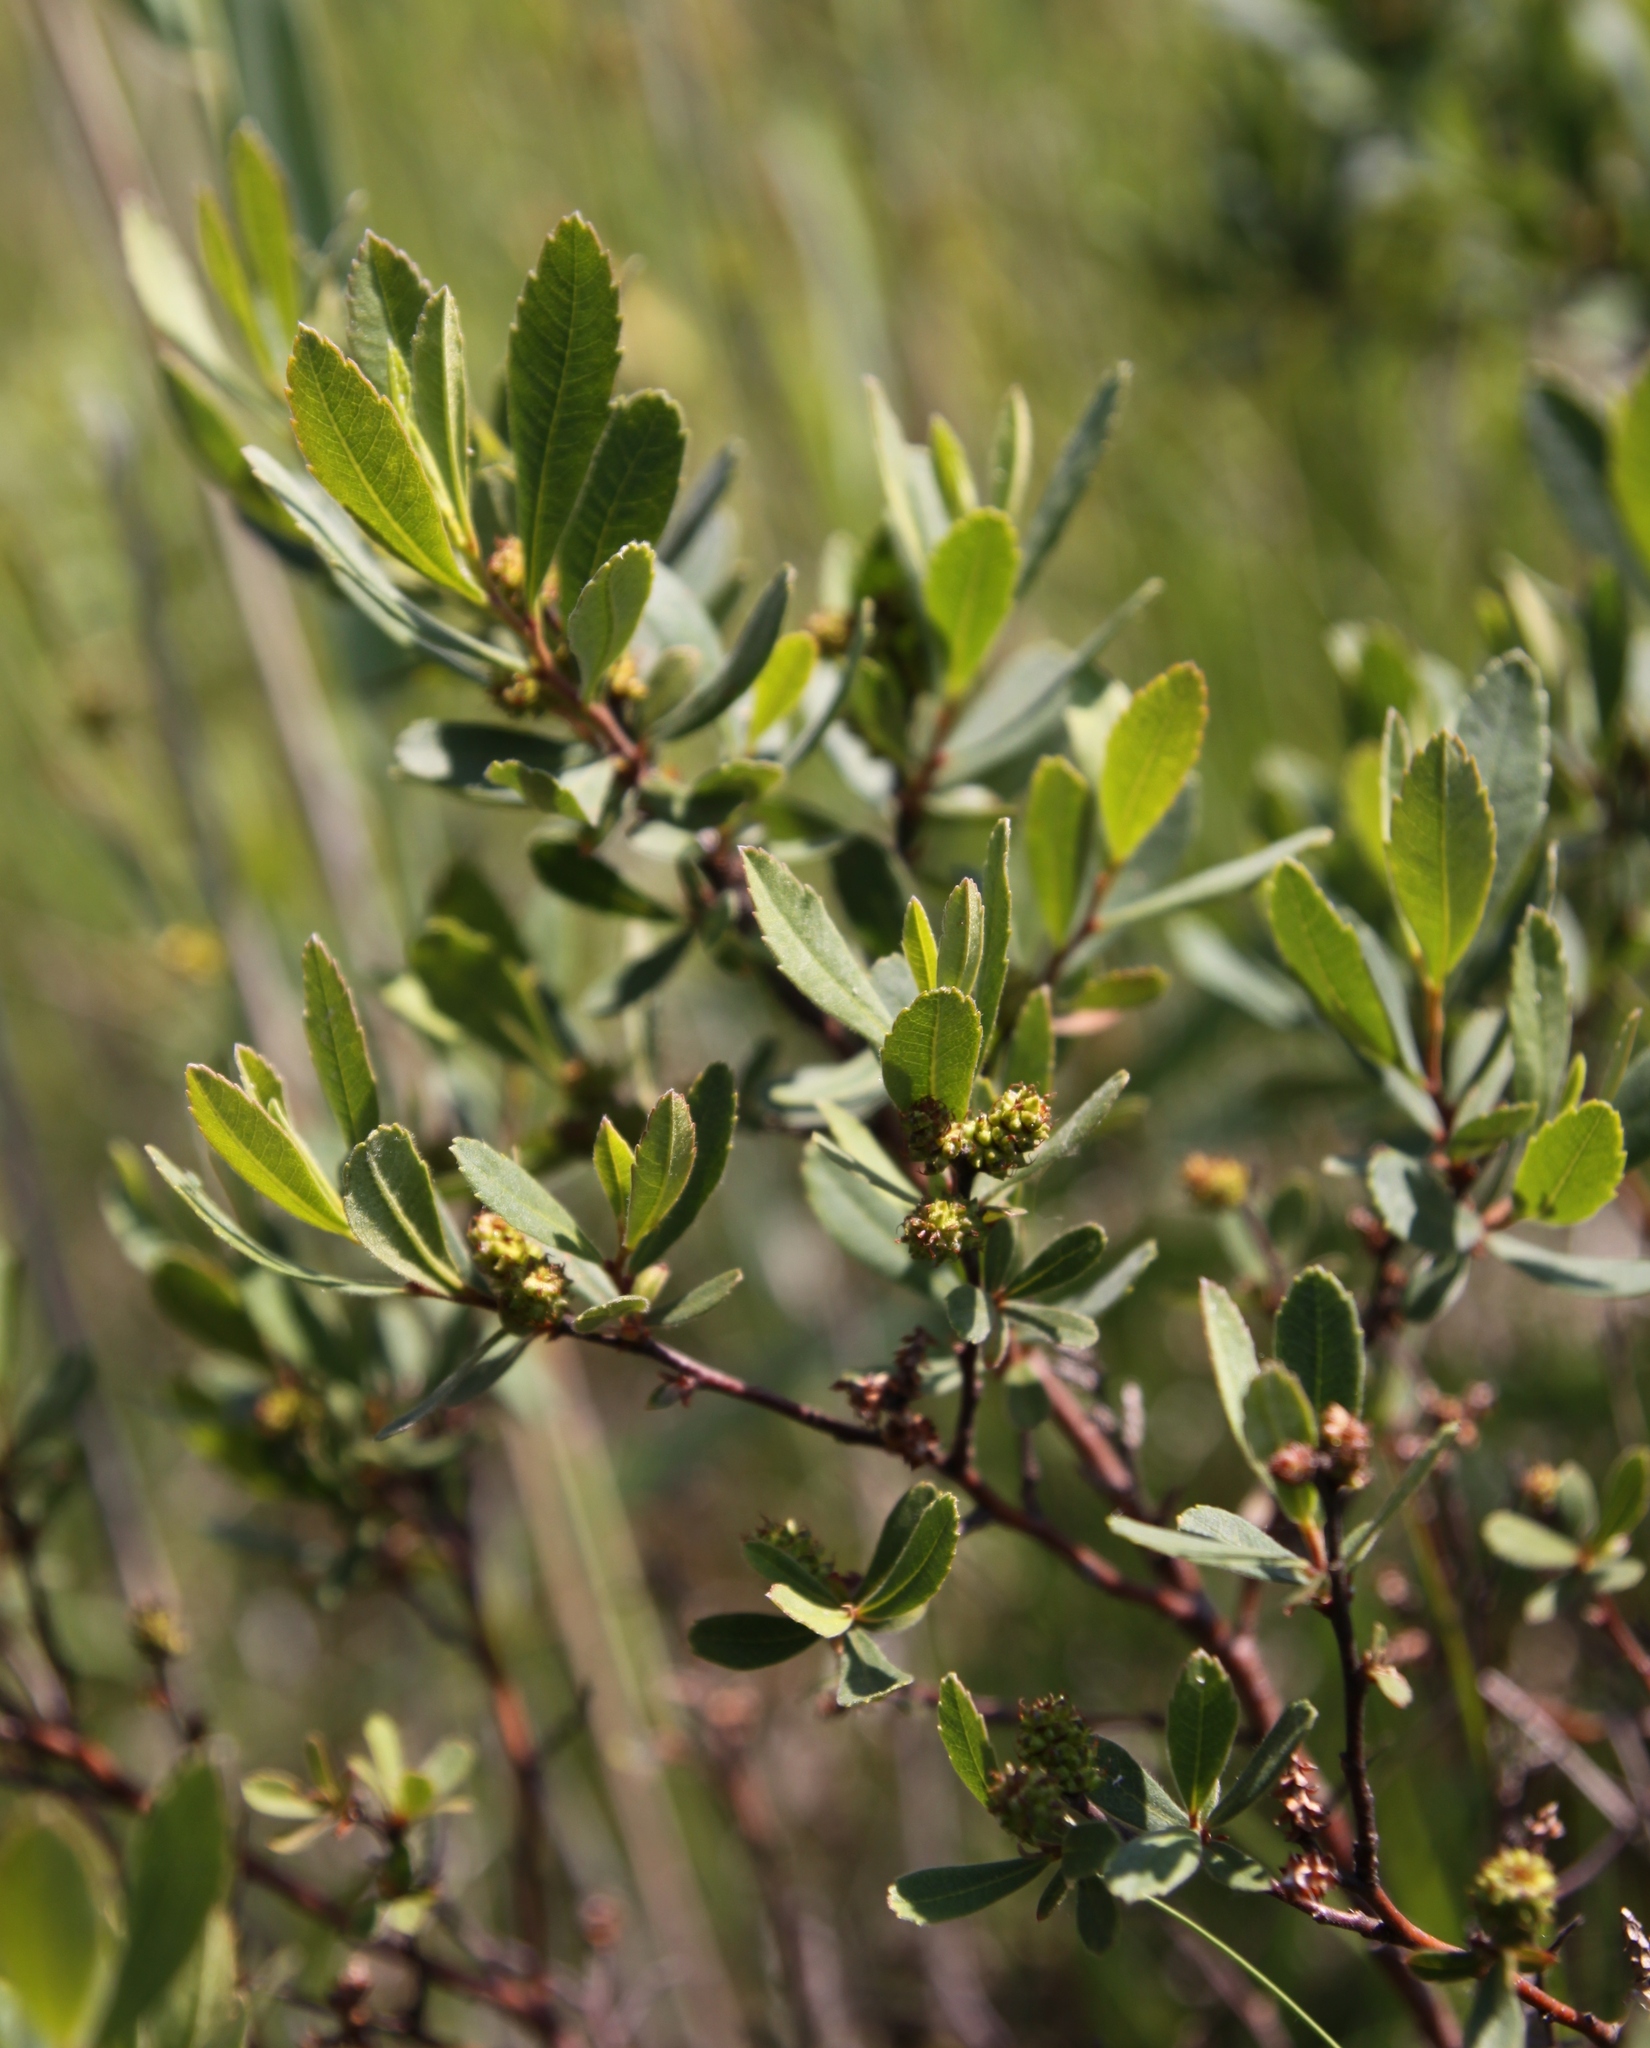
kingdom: Plantae
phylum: Tracheophyta
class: Magnoliopsida
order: Fagales
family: Myricaceae
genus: Myrica
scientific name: Myrica gale
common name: Sweet gale
